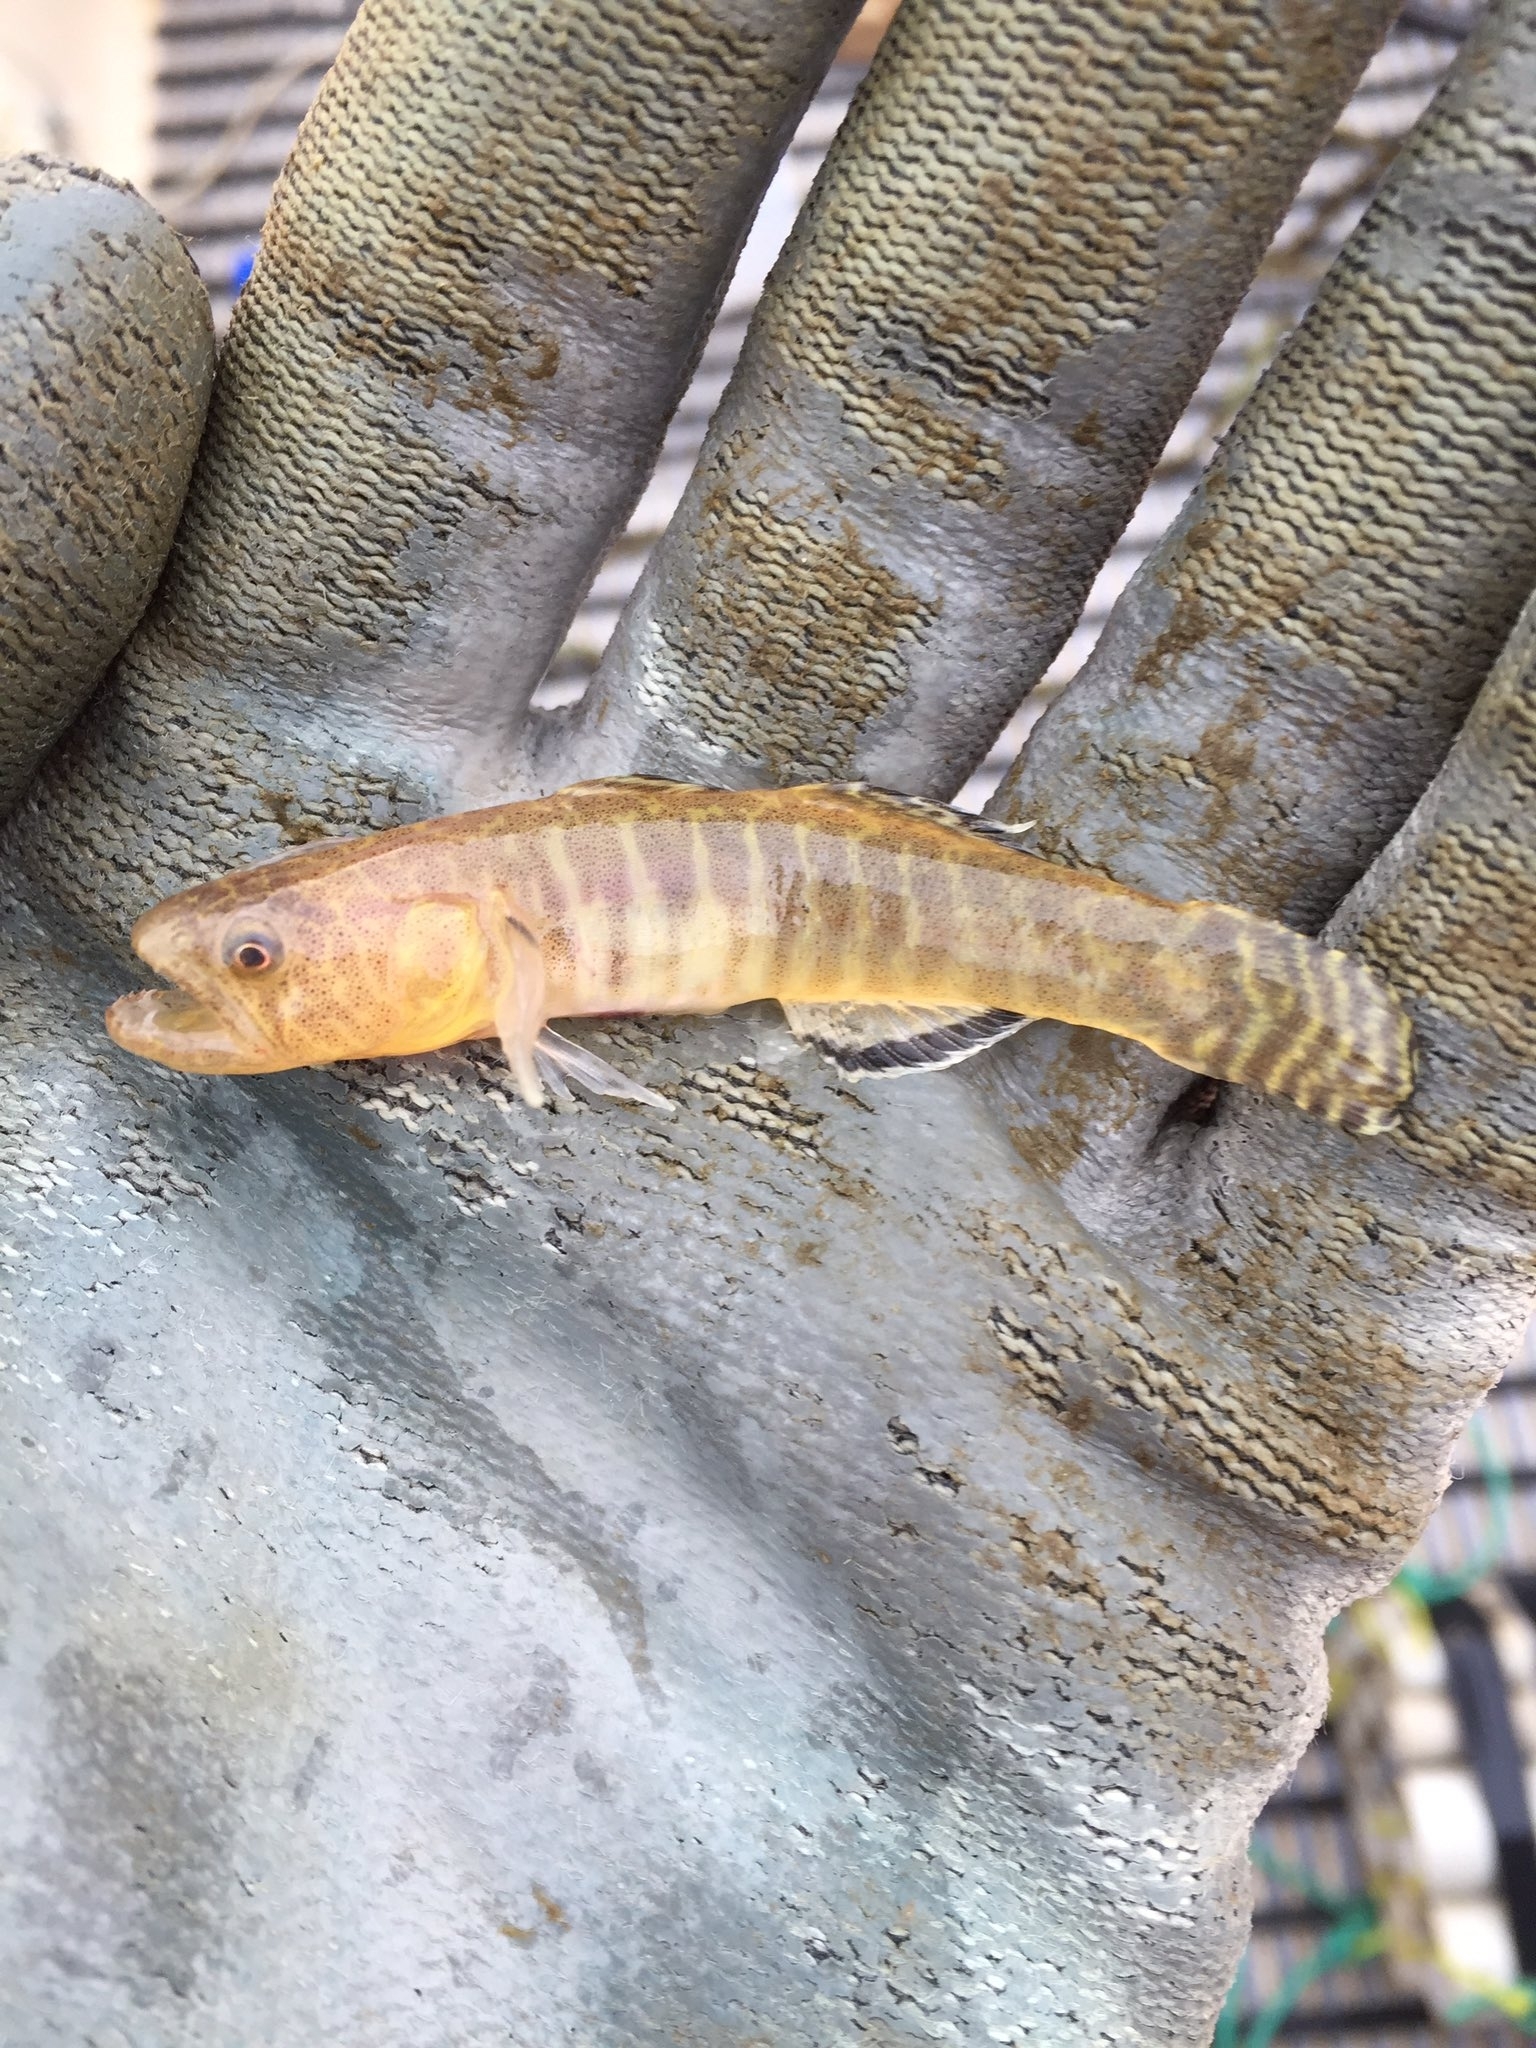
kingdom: Animalia
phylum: Chordata
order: Perciformes
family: Thalasseleotrididae
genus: Grahamichthys
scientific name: Grahamichthys radiata
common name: Graham's gudgeon
